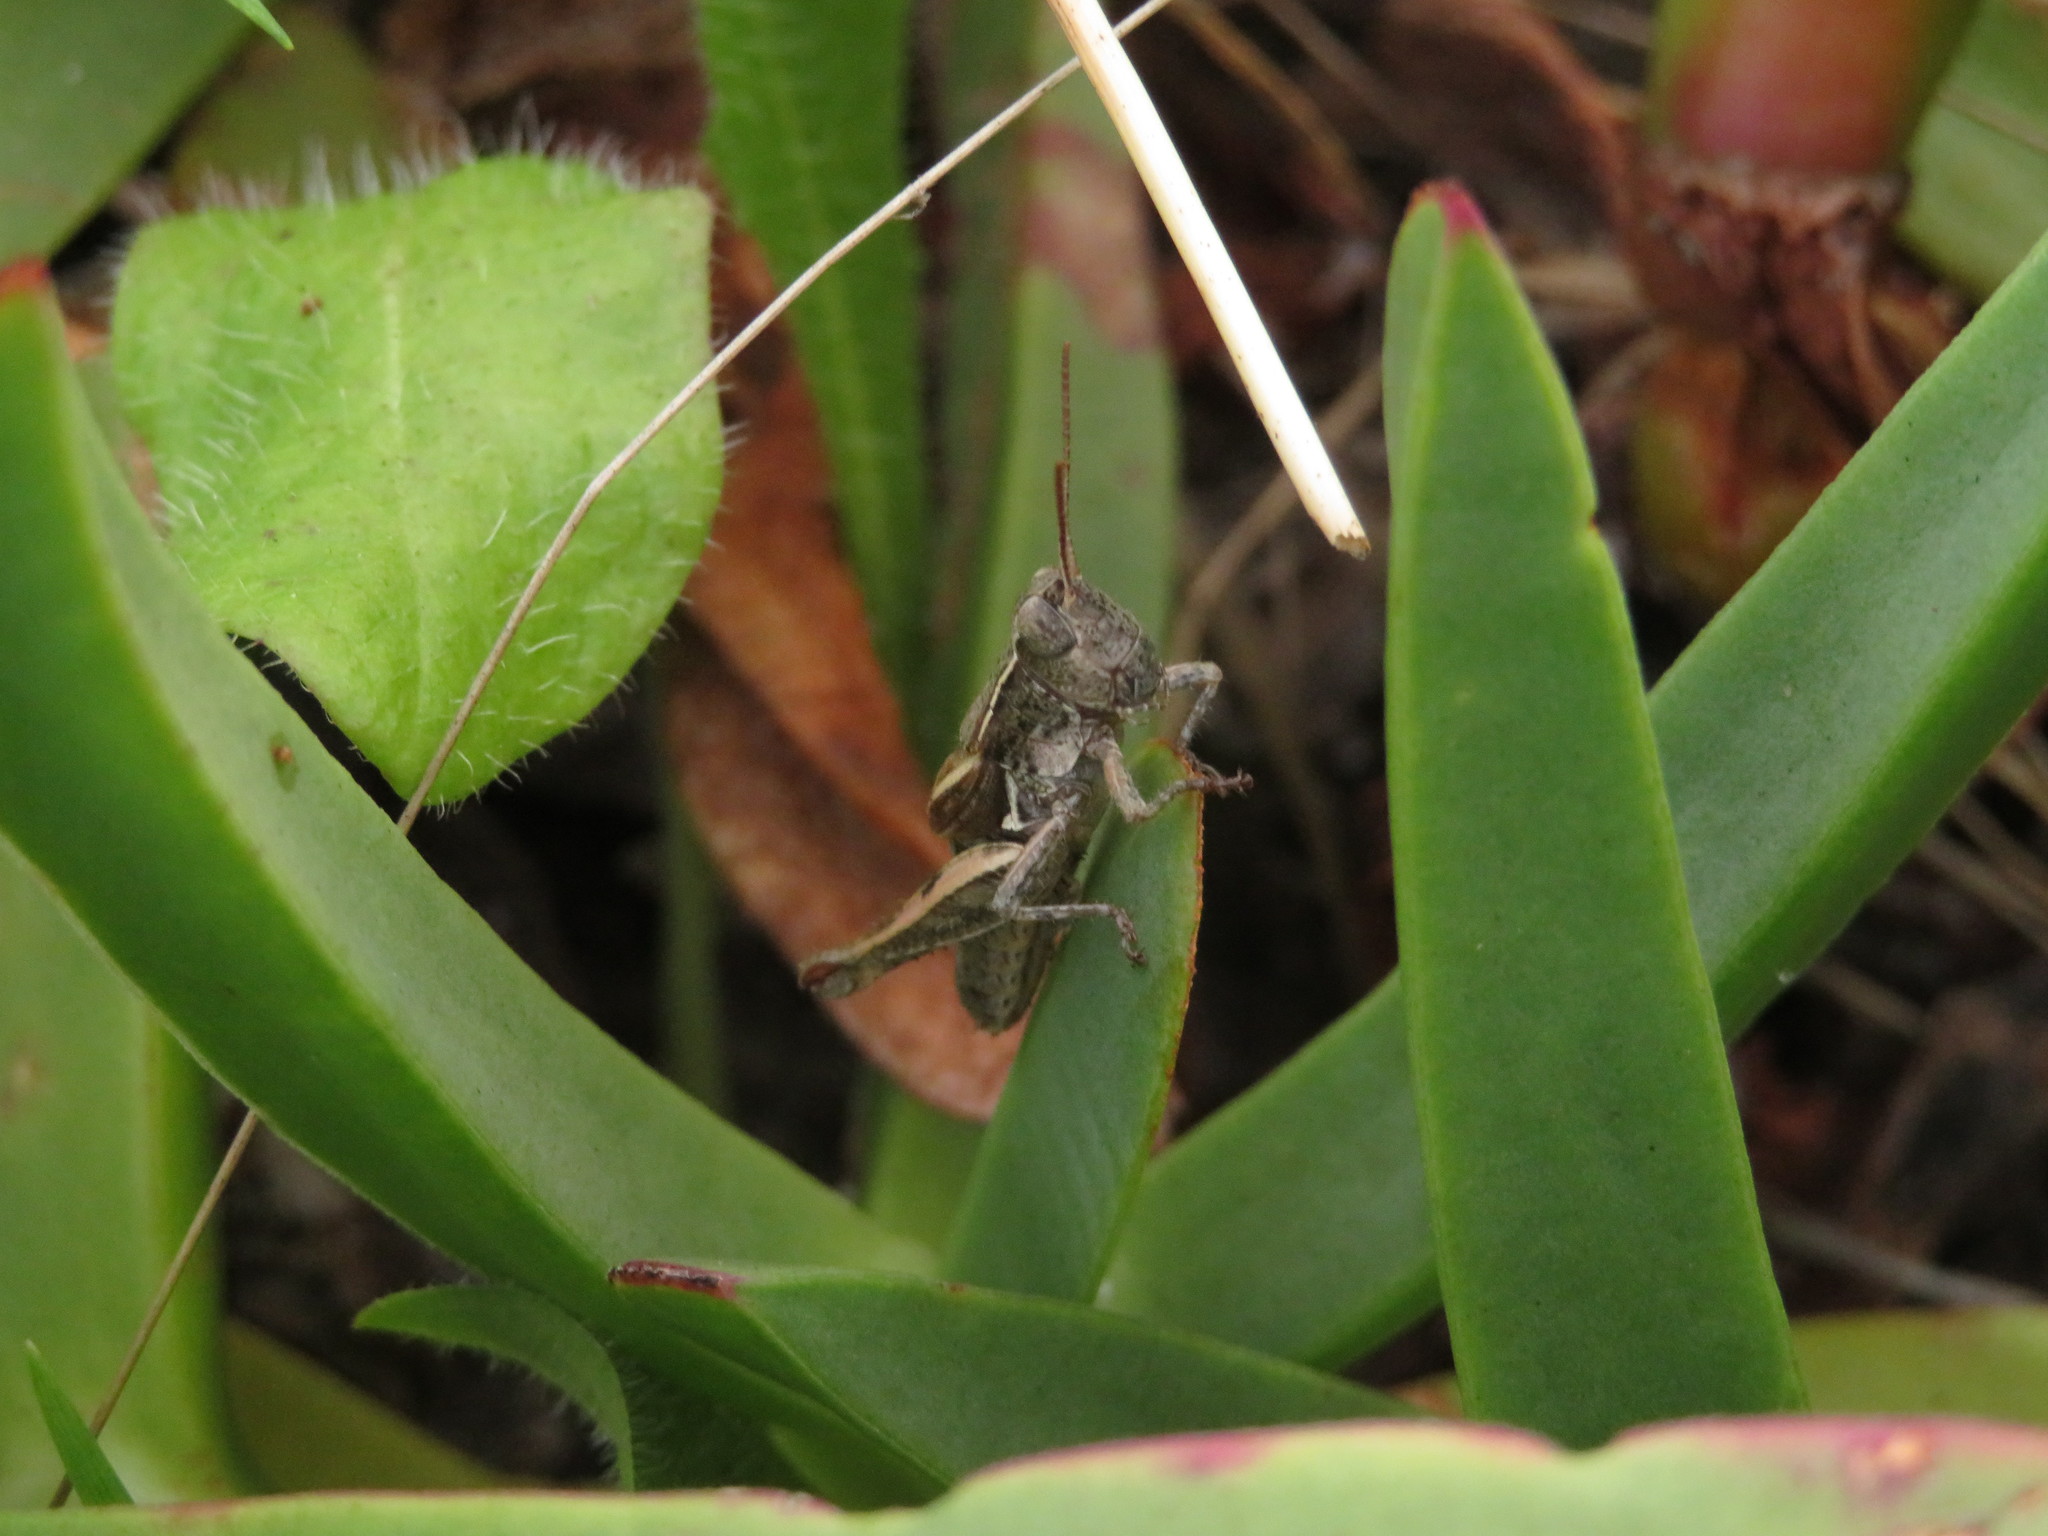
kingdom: Animalia
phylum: Arthropoda
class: Insecta
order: Orthoptera
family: Acrididae
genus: Phaulacridium
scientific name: Phaulacridium marginale
